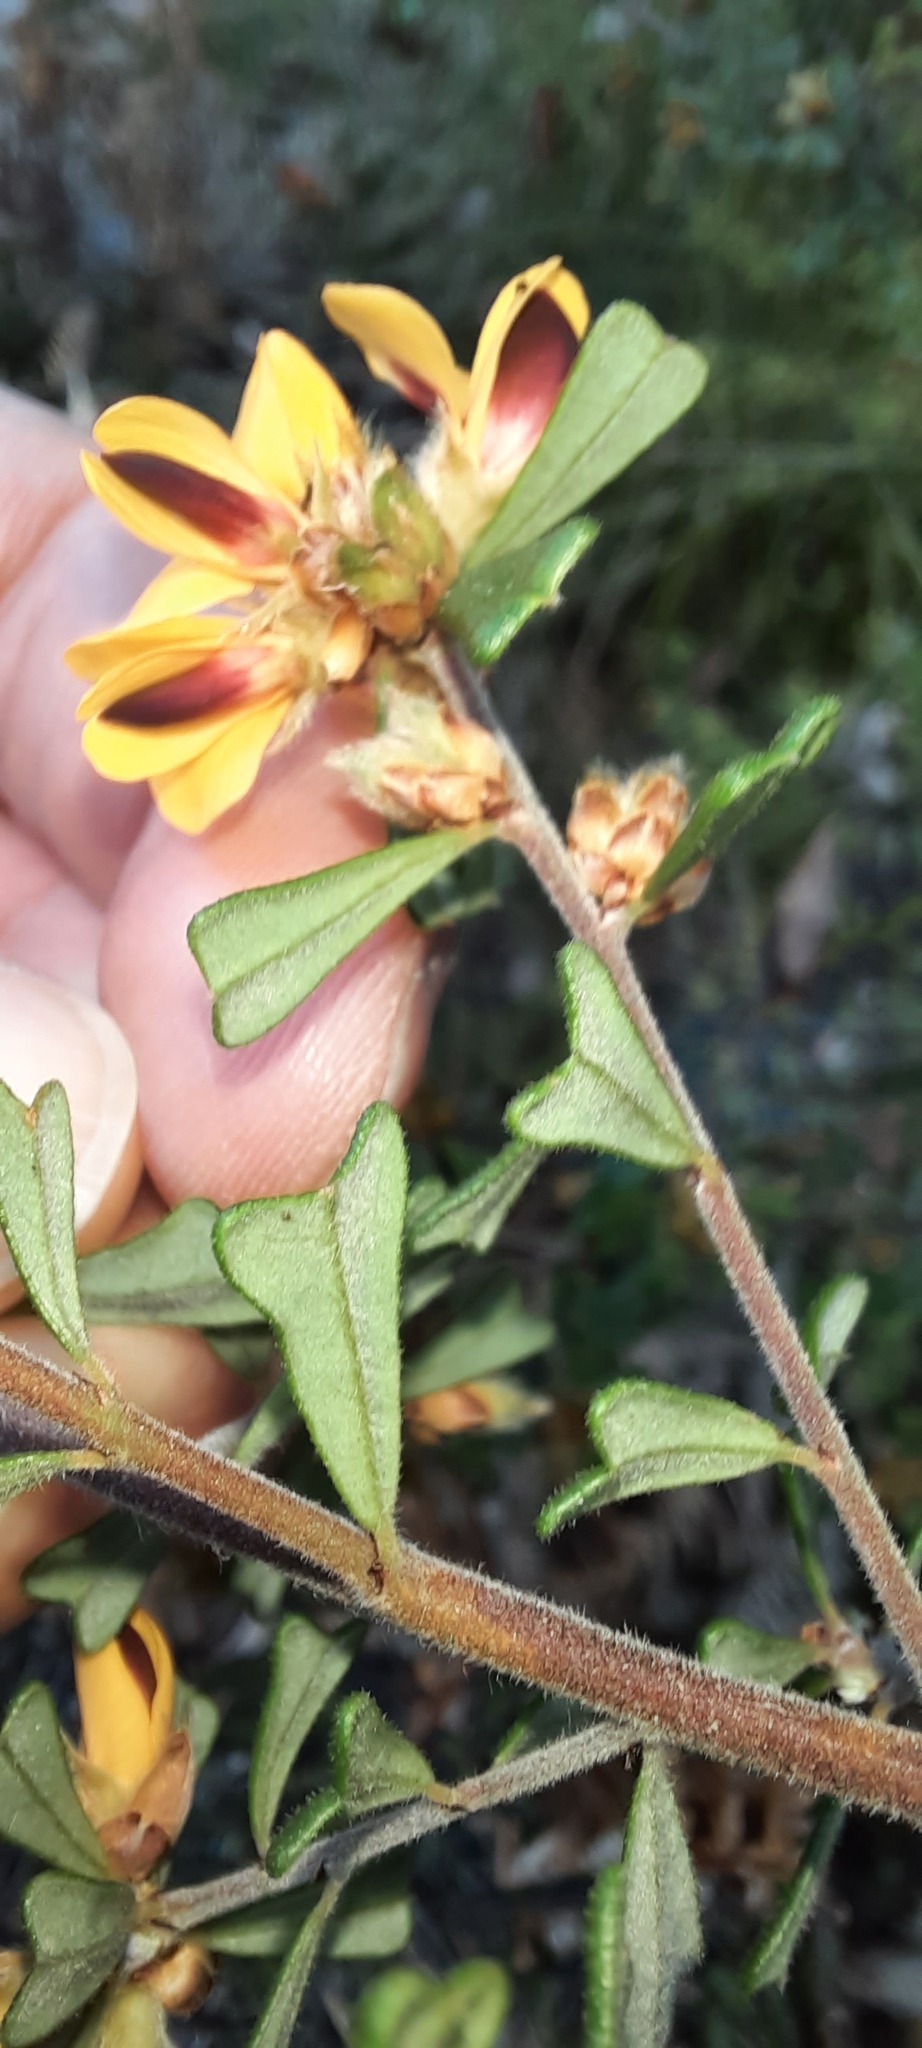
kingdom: Plantae
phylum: Tracheophyta
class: Magnoliopsida
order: Fabales
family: Fabaceae
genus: Pultenaea
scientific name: Pultenaea scabra
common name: Rough bush-pea
